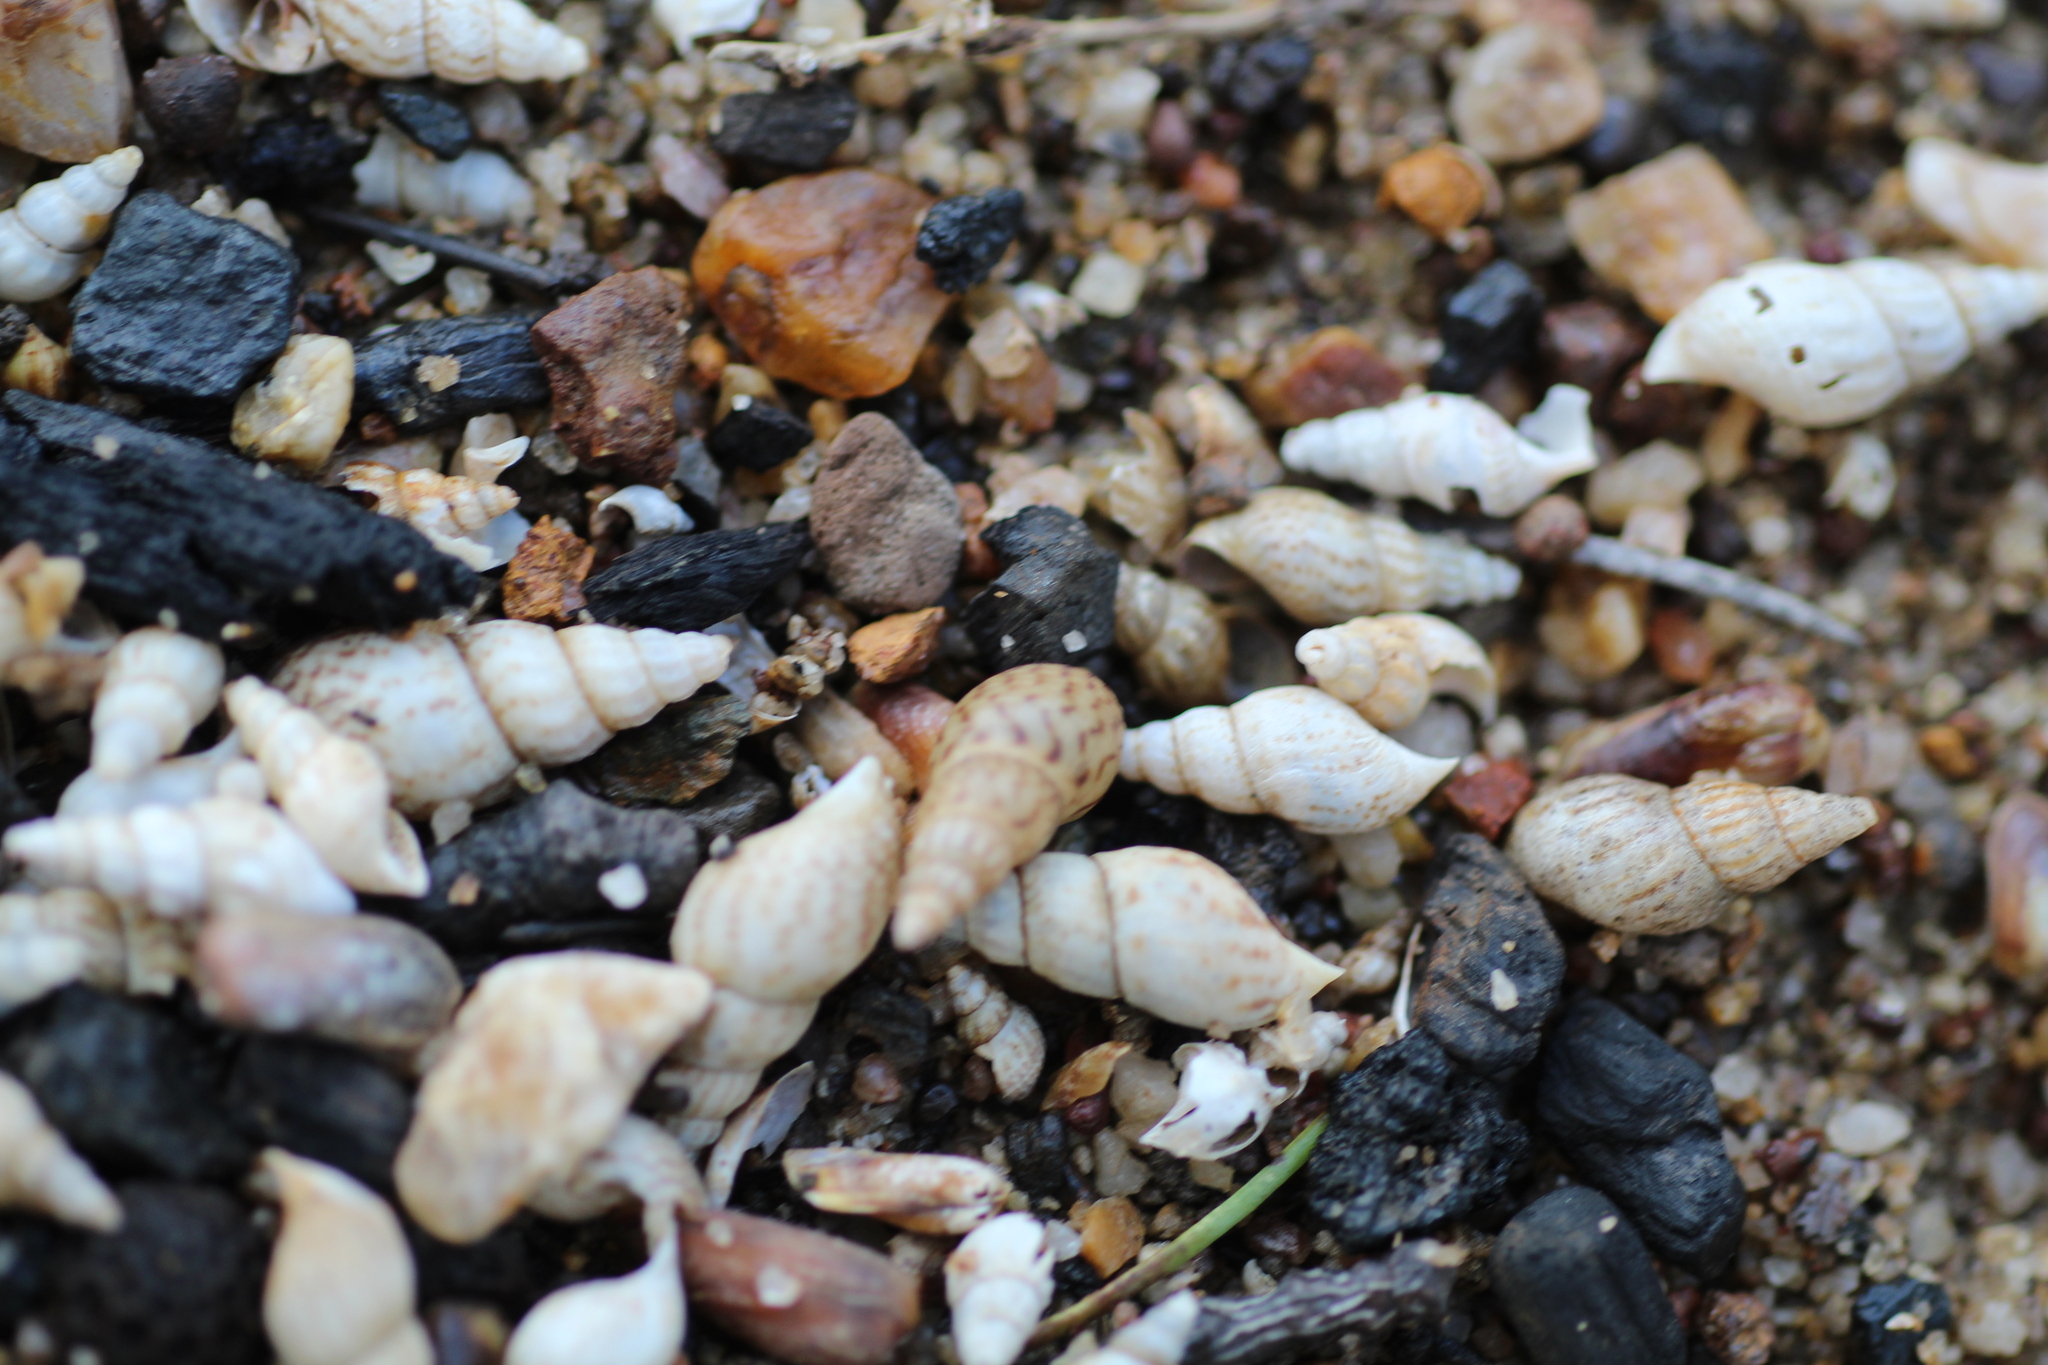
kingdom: Animalia
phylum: Mollusca
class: Gastropoda
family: Thiaridae
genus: Melanoides
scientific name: Melanoides tuberculata
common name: Red-rim melania
